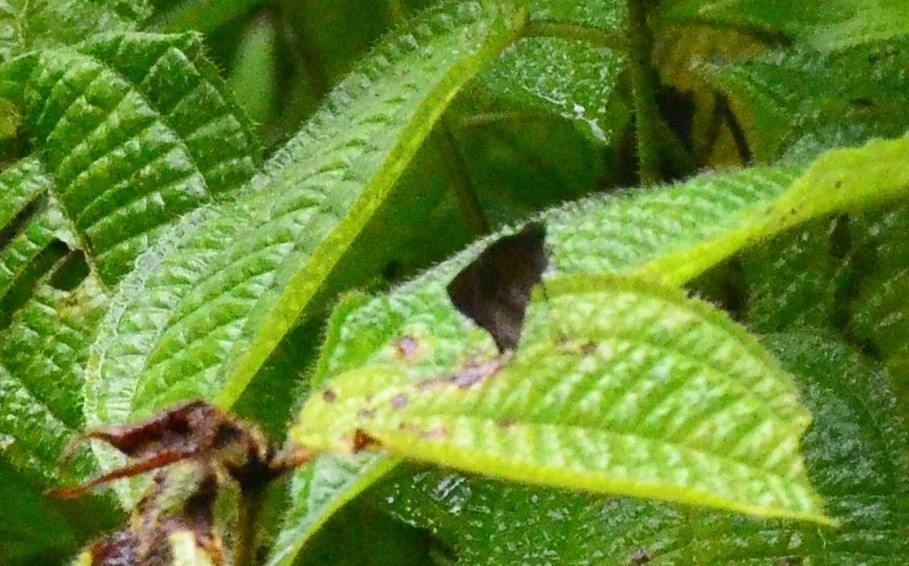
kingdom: Animalia
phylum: Arthropoda
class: Insecta
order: Lepidoptera
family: Hesperiidae
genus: Psolos
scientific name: Psolos fuligo
